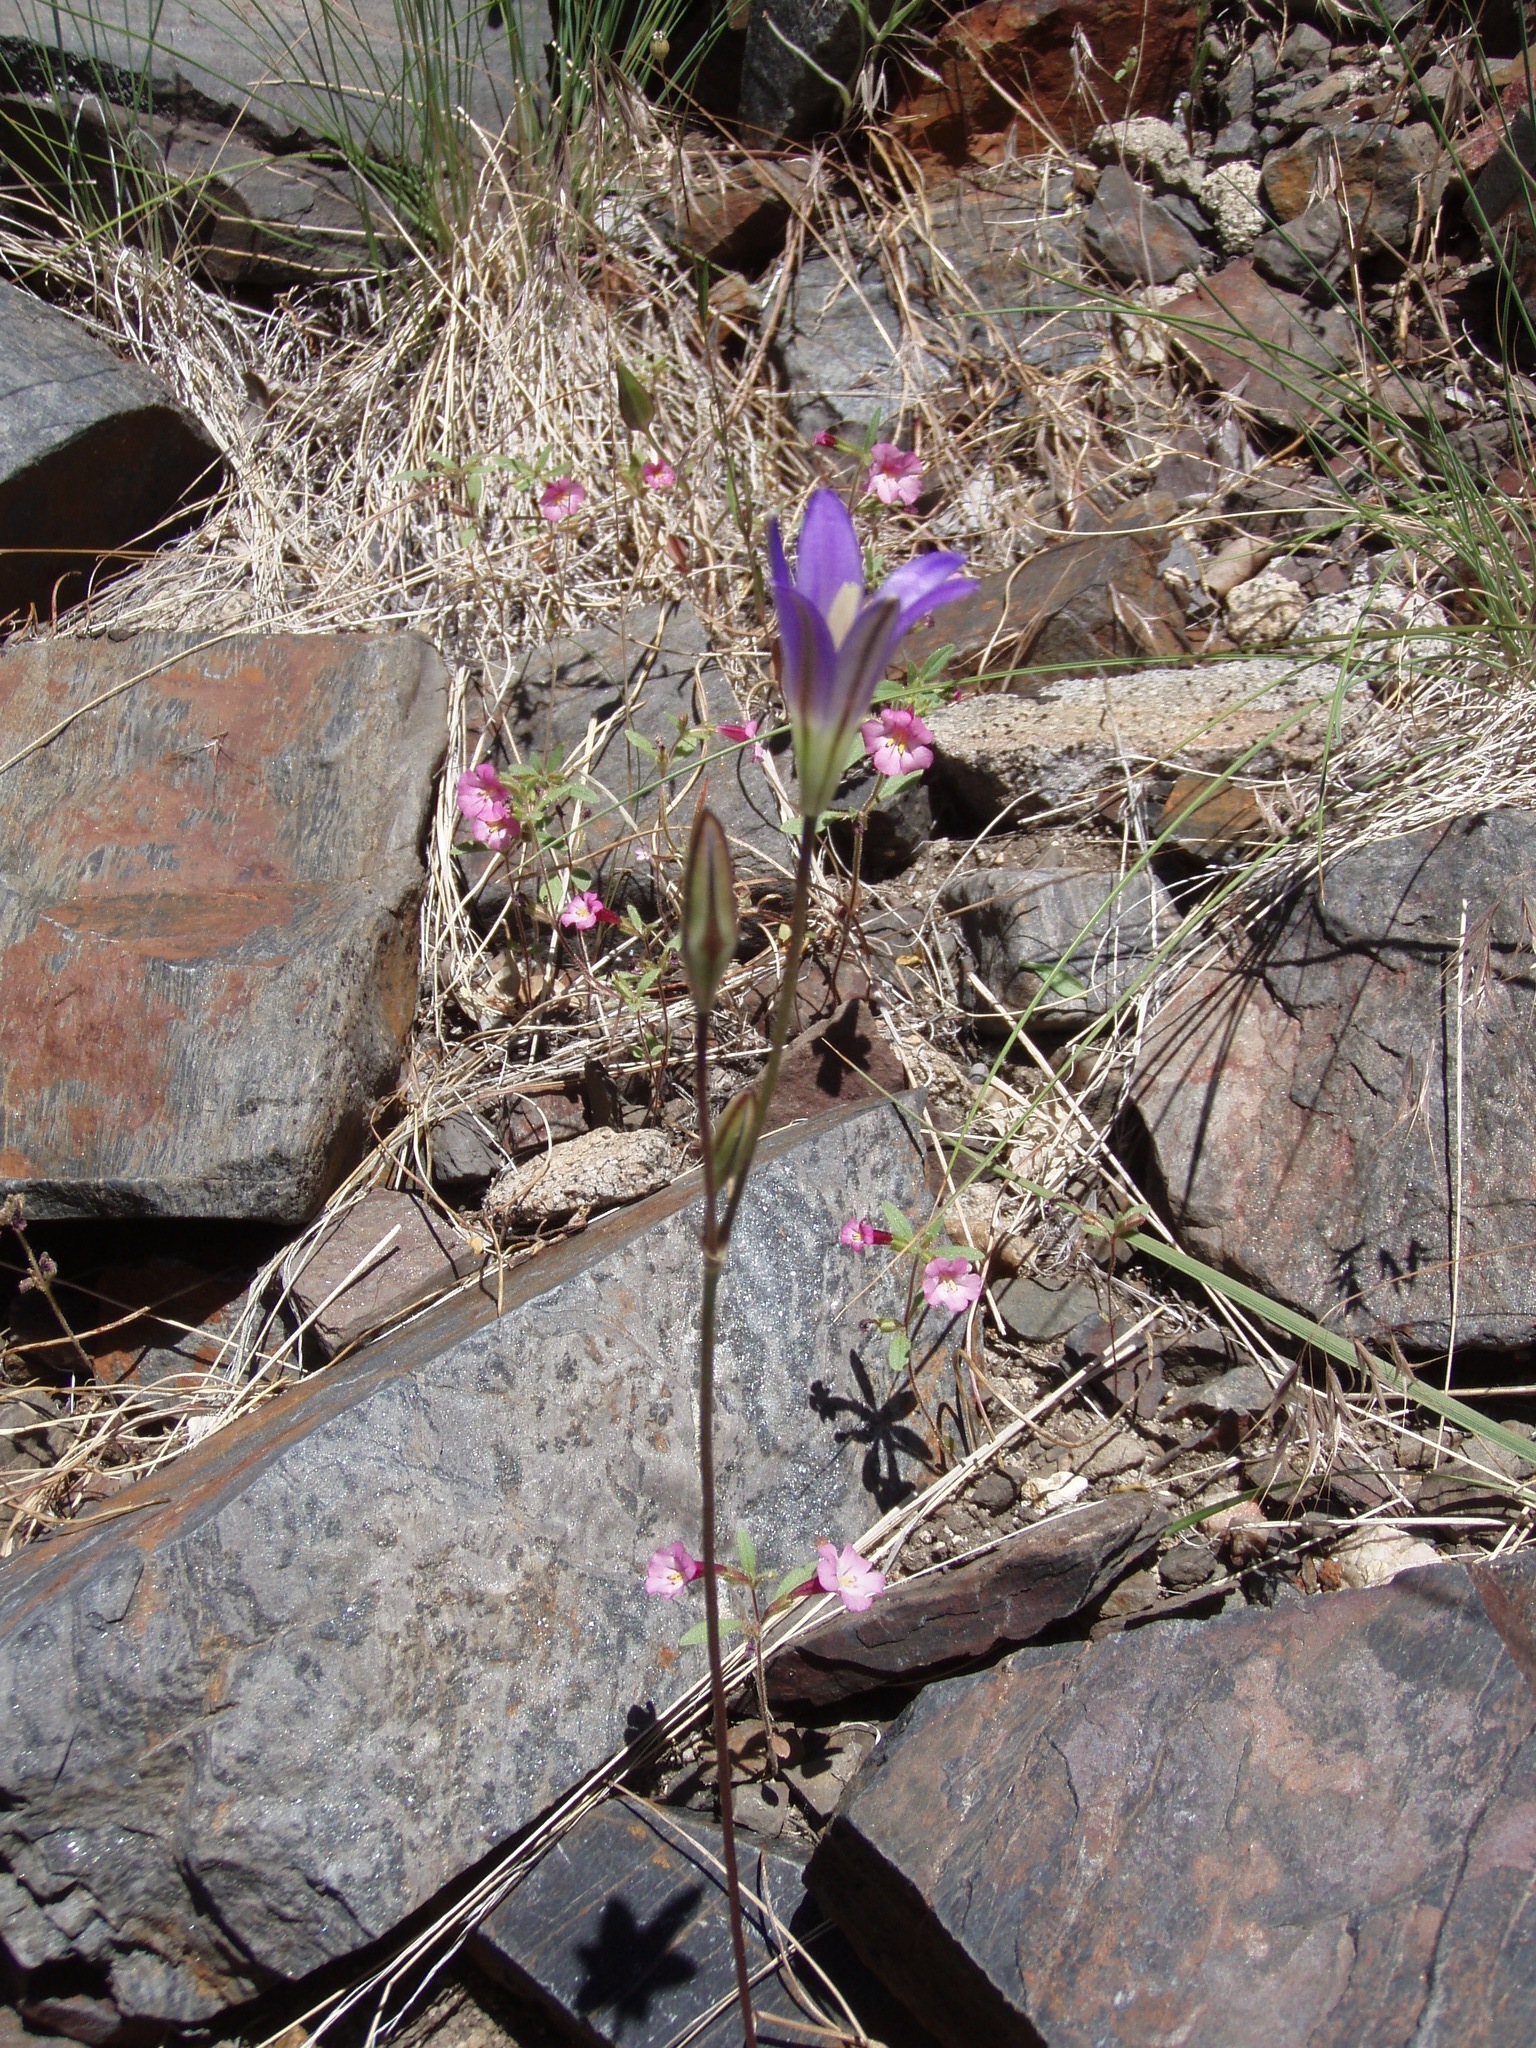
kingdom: Plantae
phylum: Tracheophyta
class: Liliopsida
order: Asparagales
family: Asparagaceae
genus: Brodiaea
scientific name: Brodiaea elegans
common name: Elegant cluster-lily
